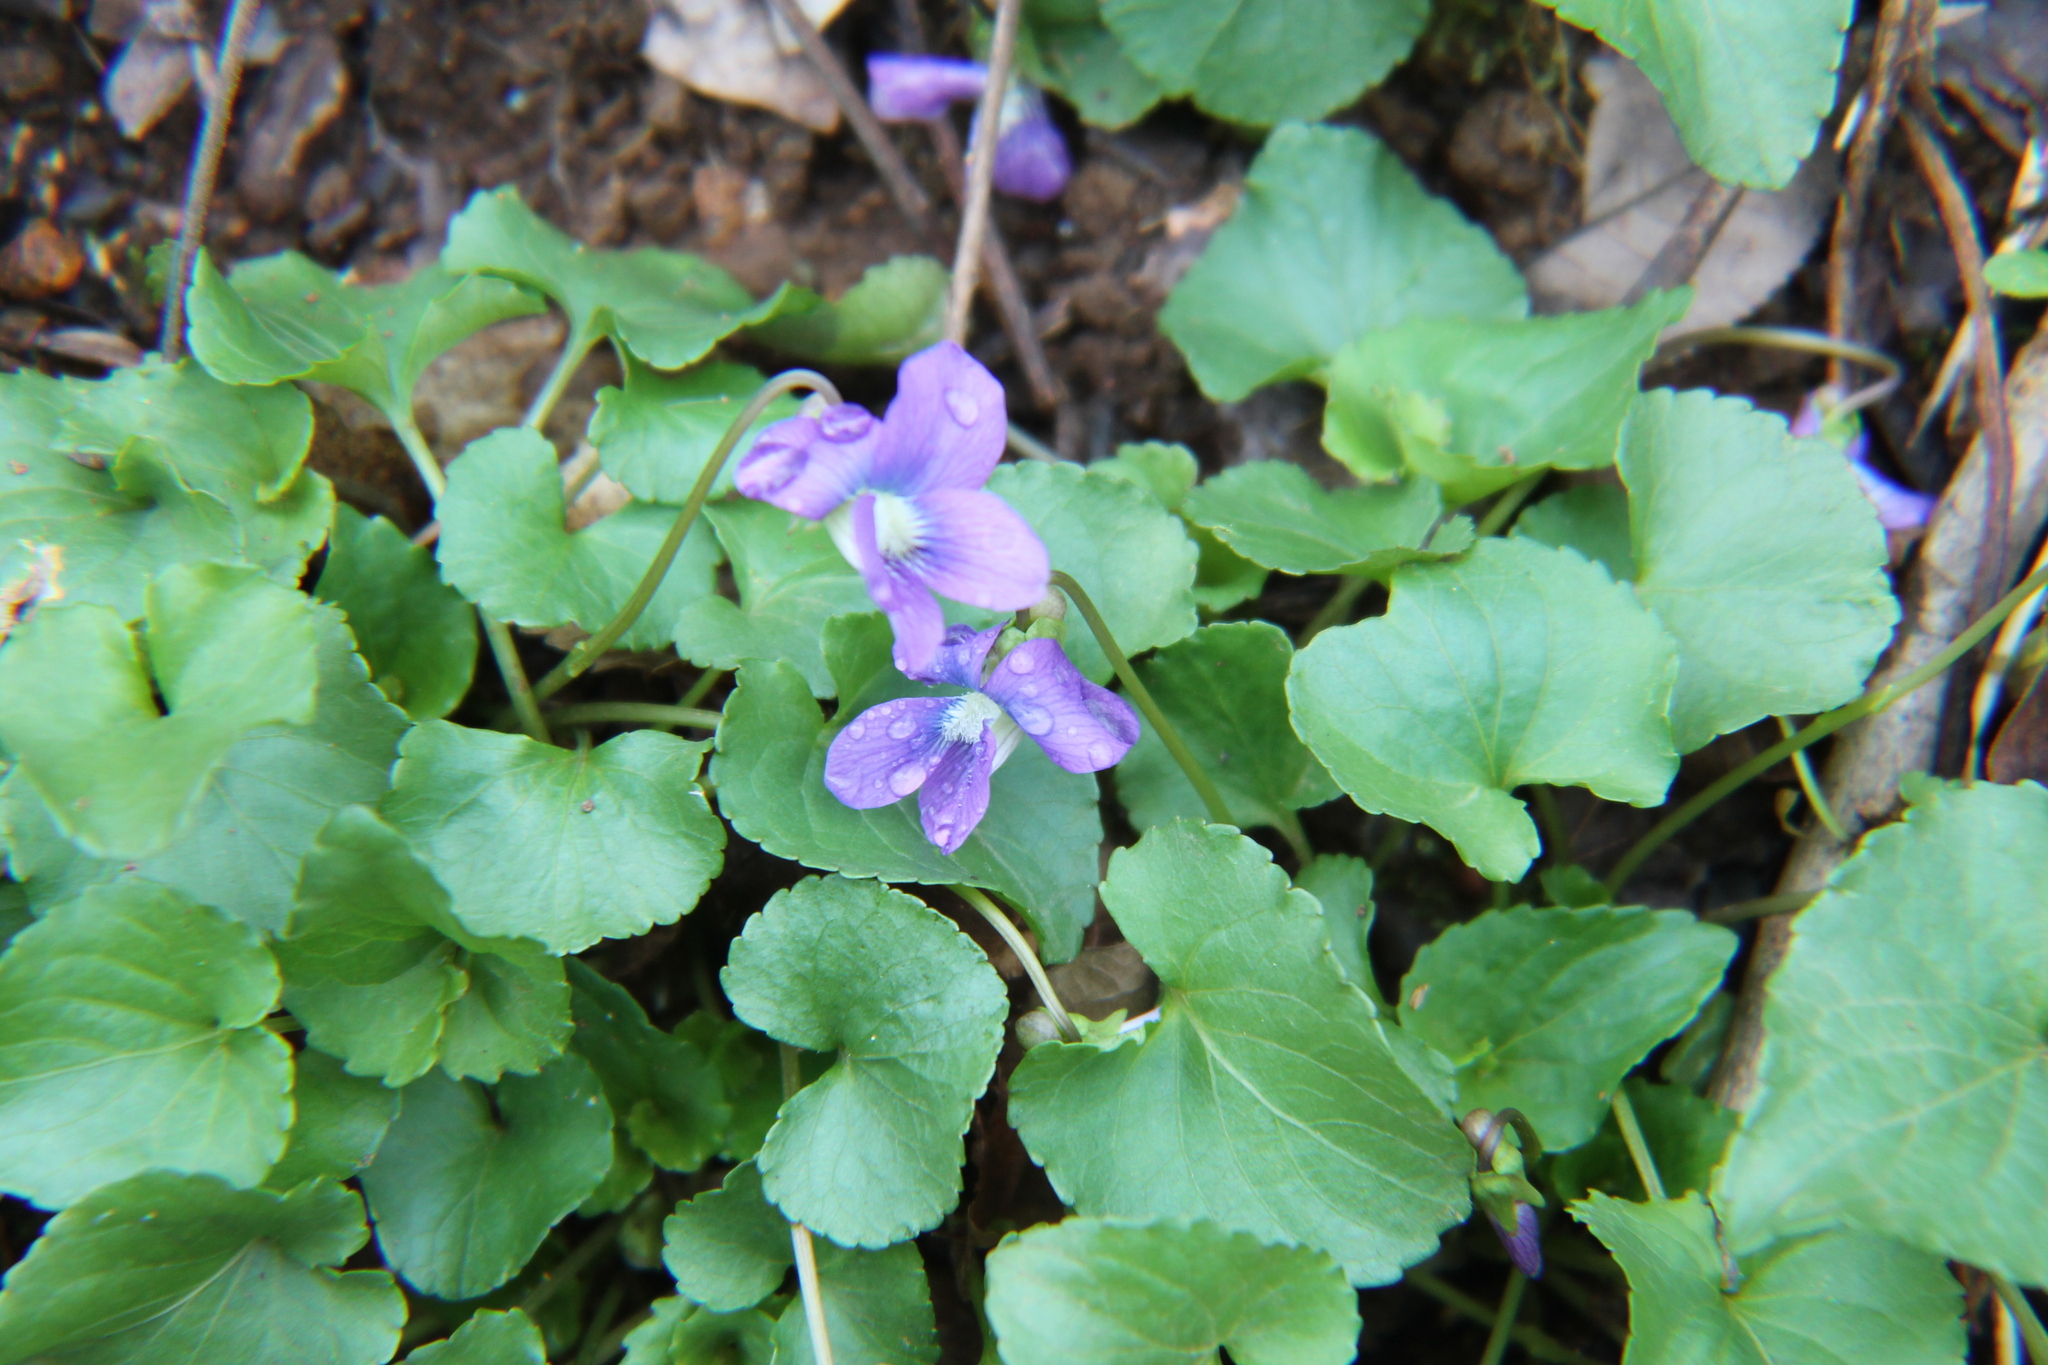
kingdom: Plantae
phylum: Tracheophyta
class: Magnoliopsida
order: Malpighiales
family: Violaceae
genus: Viola
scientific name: Viola sororia
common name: Dooryard violet
